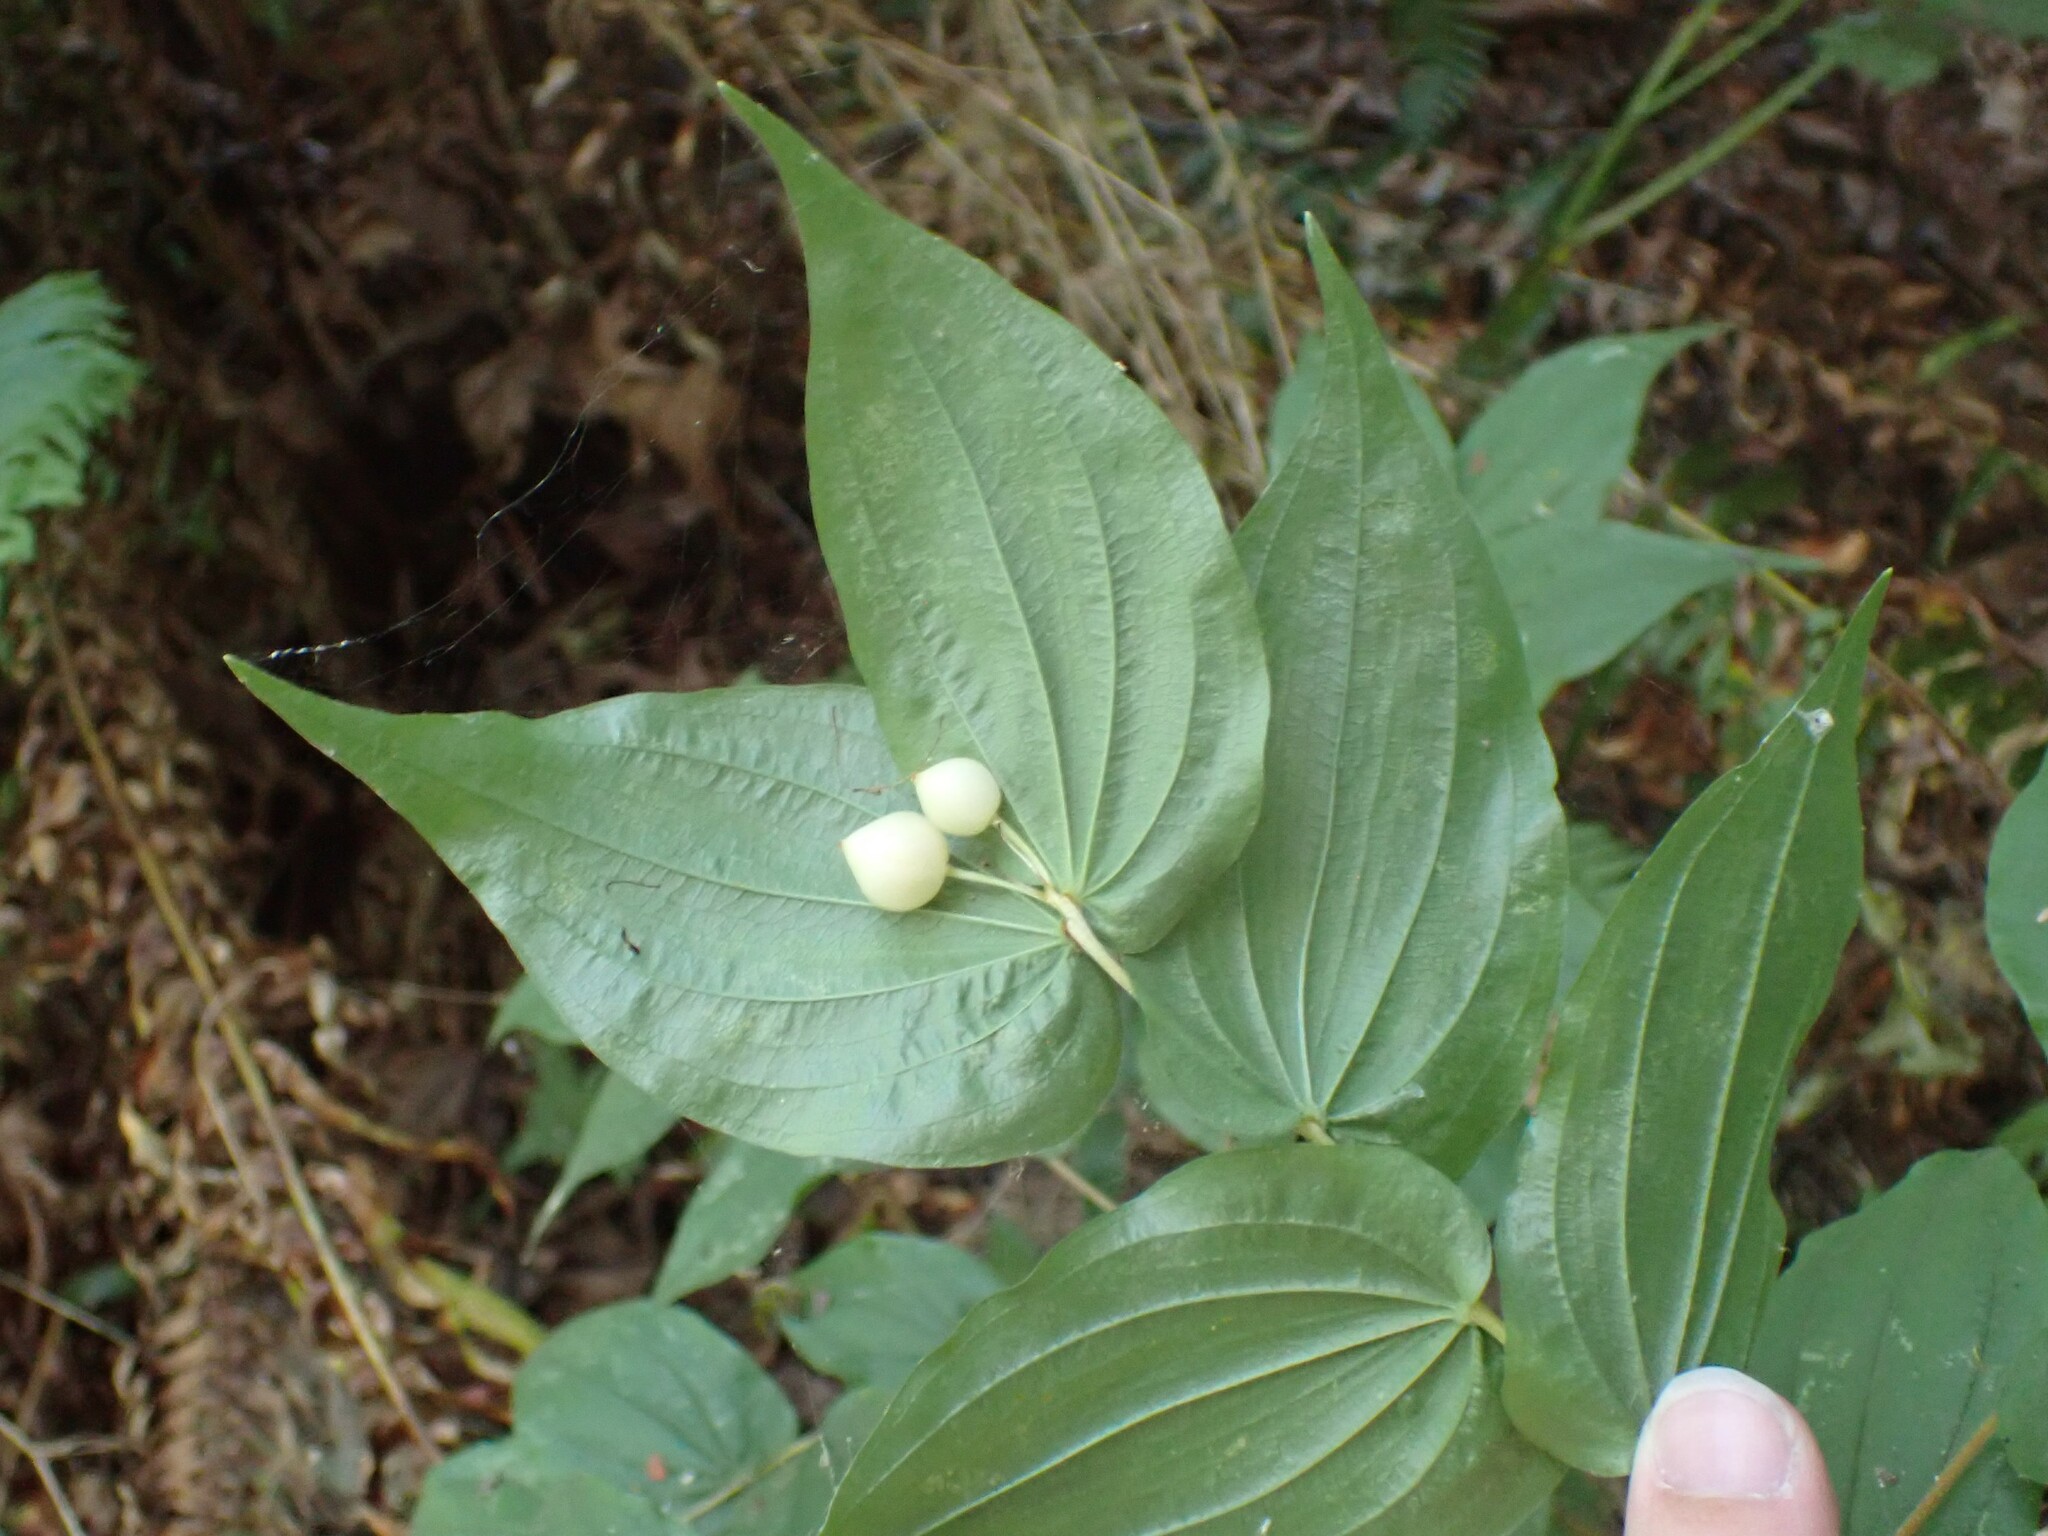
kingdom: Plantae
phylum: Tracheophyta
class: Liliopsida
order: Liliales
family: Liliaceae
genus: Prosartes
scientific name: Prosartes hookeri
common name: Fairy-bells
